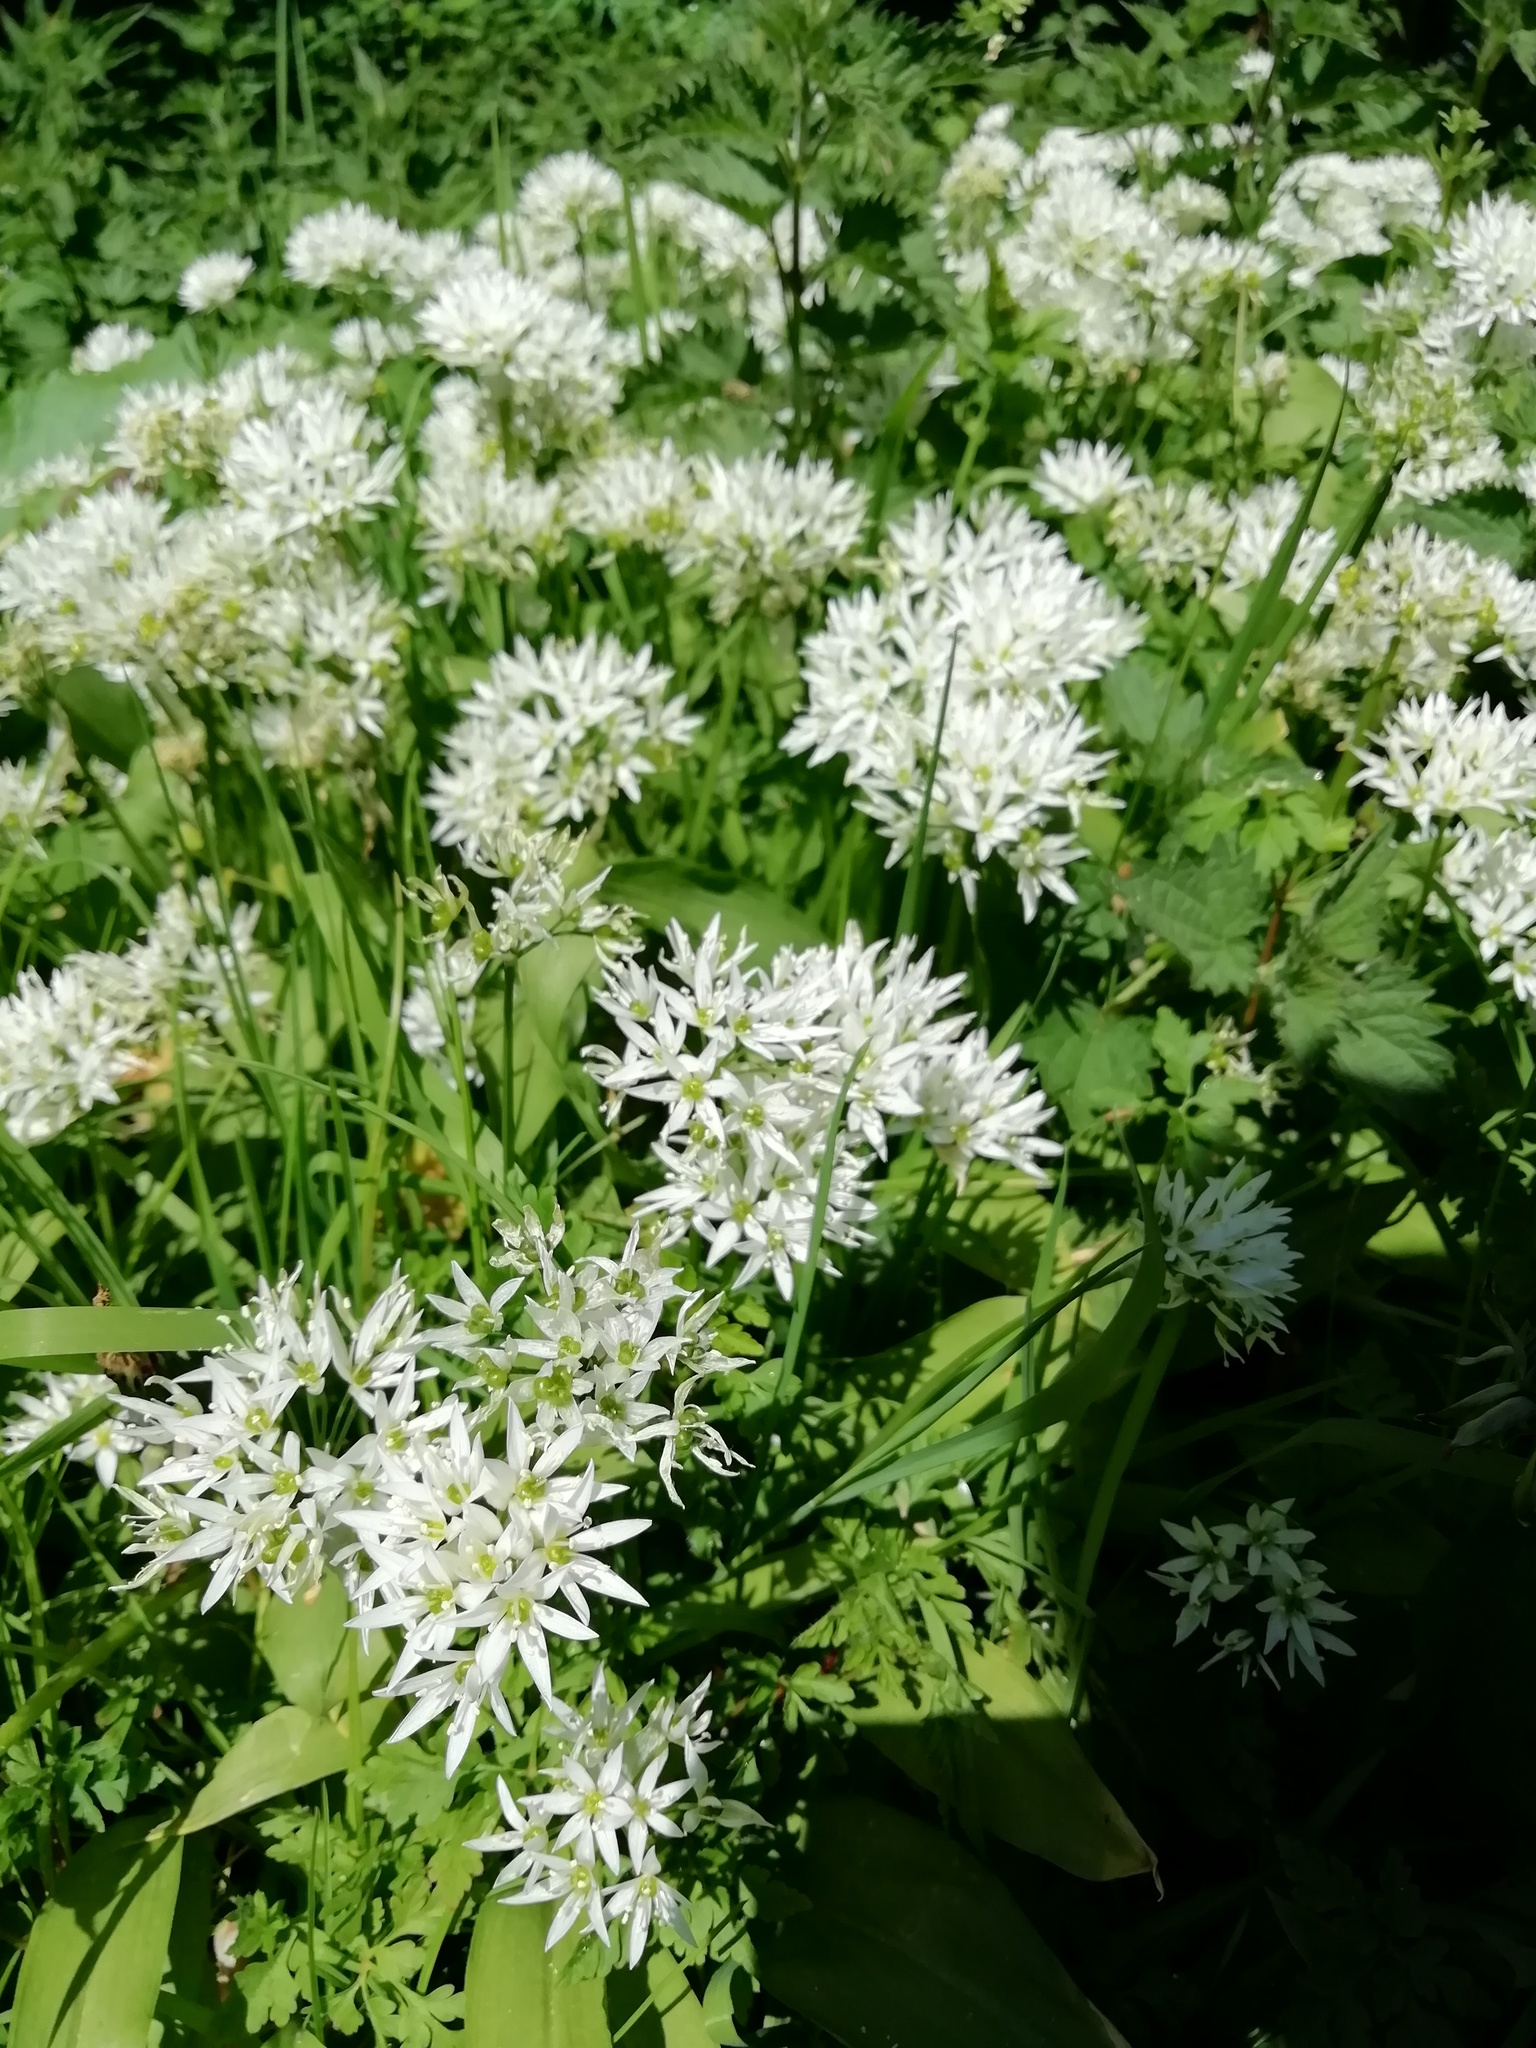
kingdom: Plantae
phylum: Tracheophyta
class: Liliopsida
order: Asparagales
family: Amaryllidaceae
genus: Allium
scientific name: Allium ursinum
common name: Ramsons
